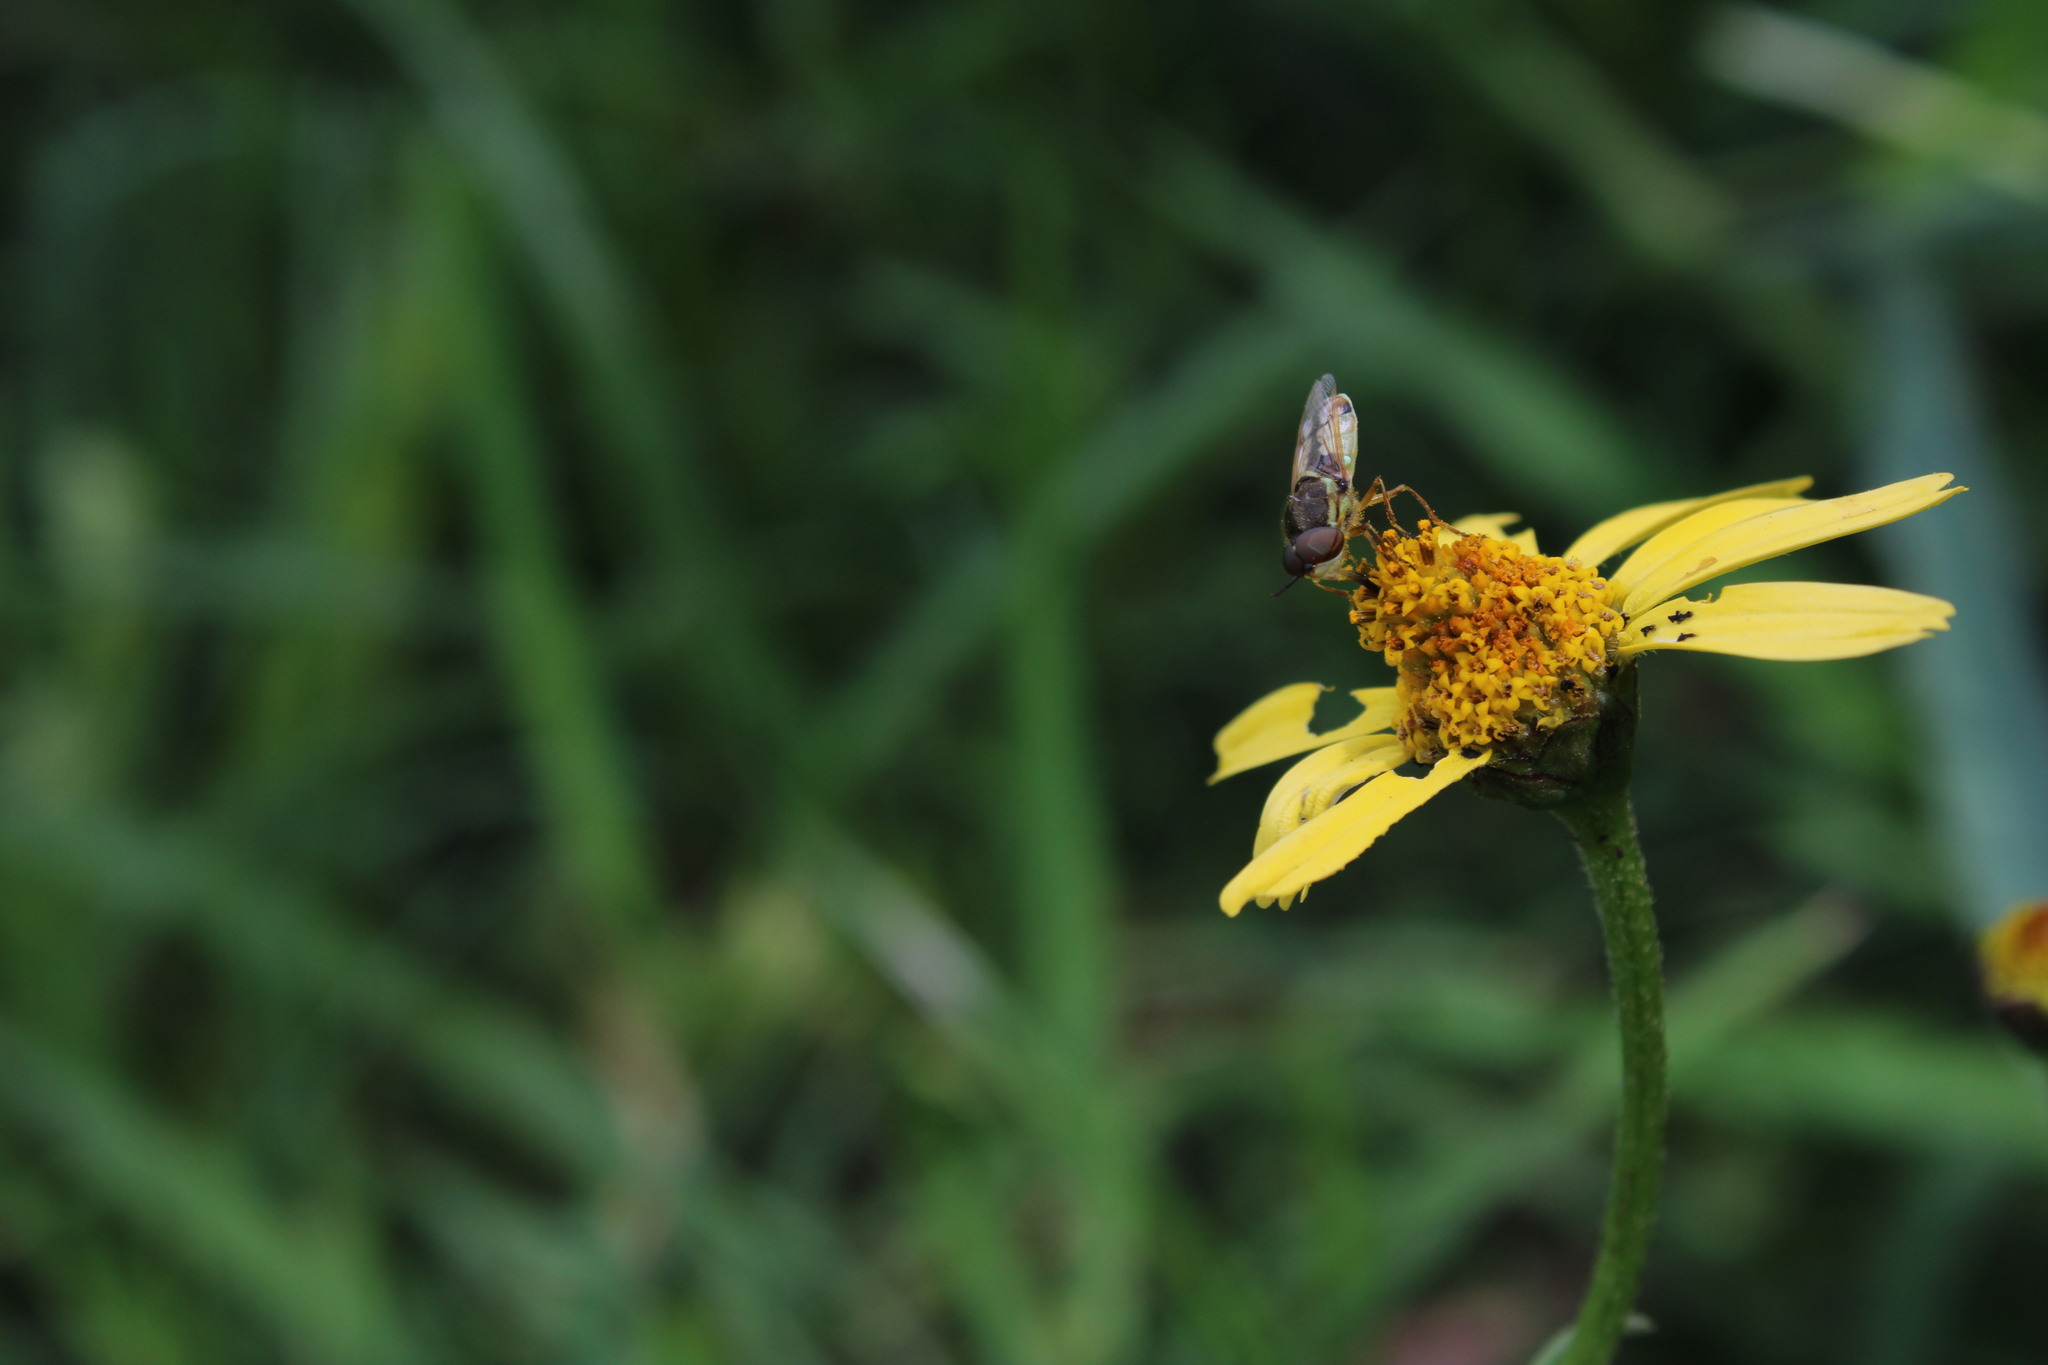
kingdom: Animalia
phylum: Arthropoda
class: Insecta
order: Diptera
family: Stratiomyidae
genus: Hedriodiscus
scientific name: Hedriodiscus pulcher
